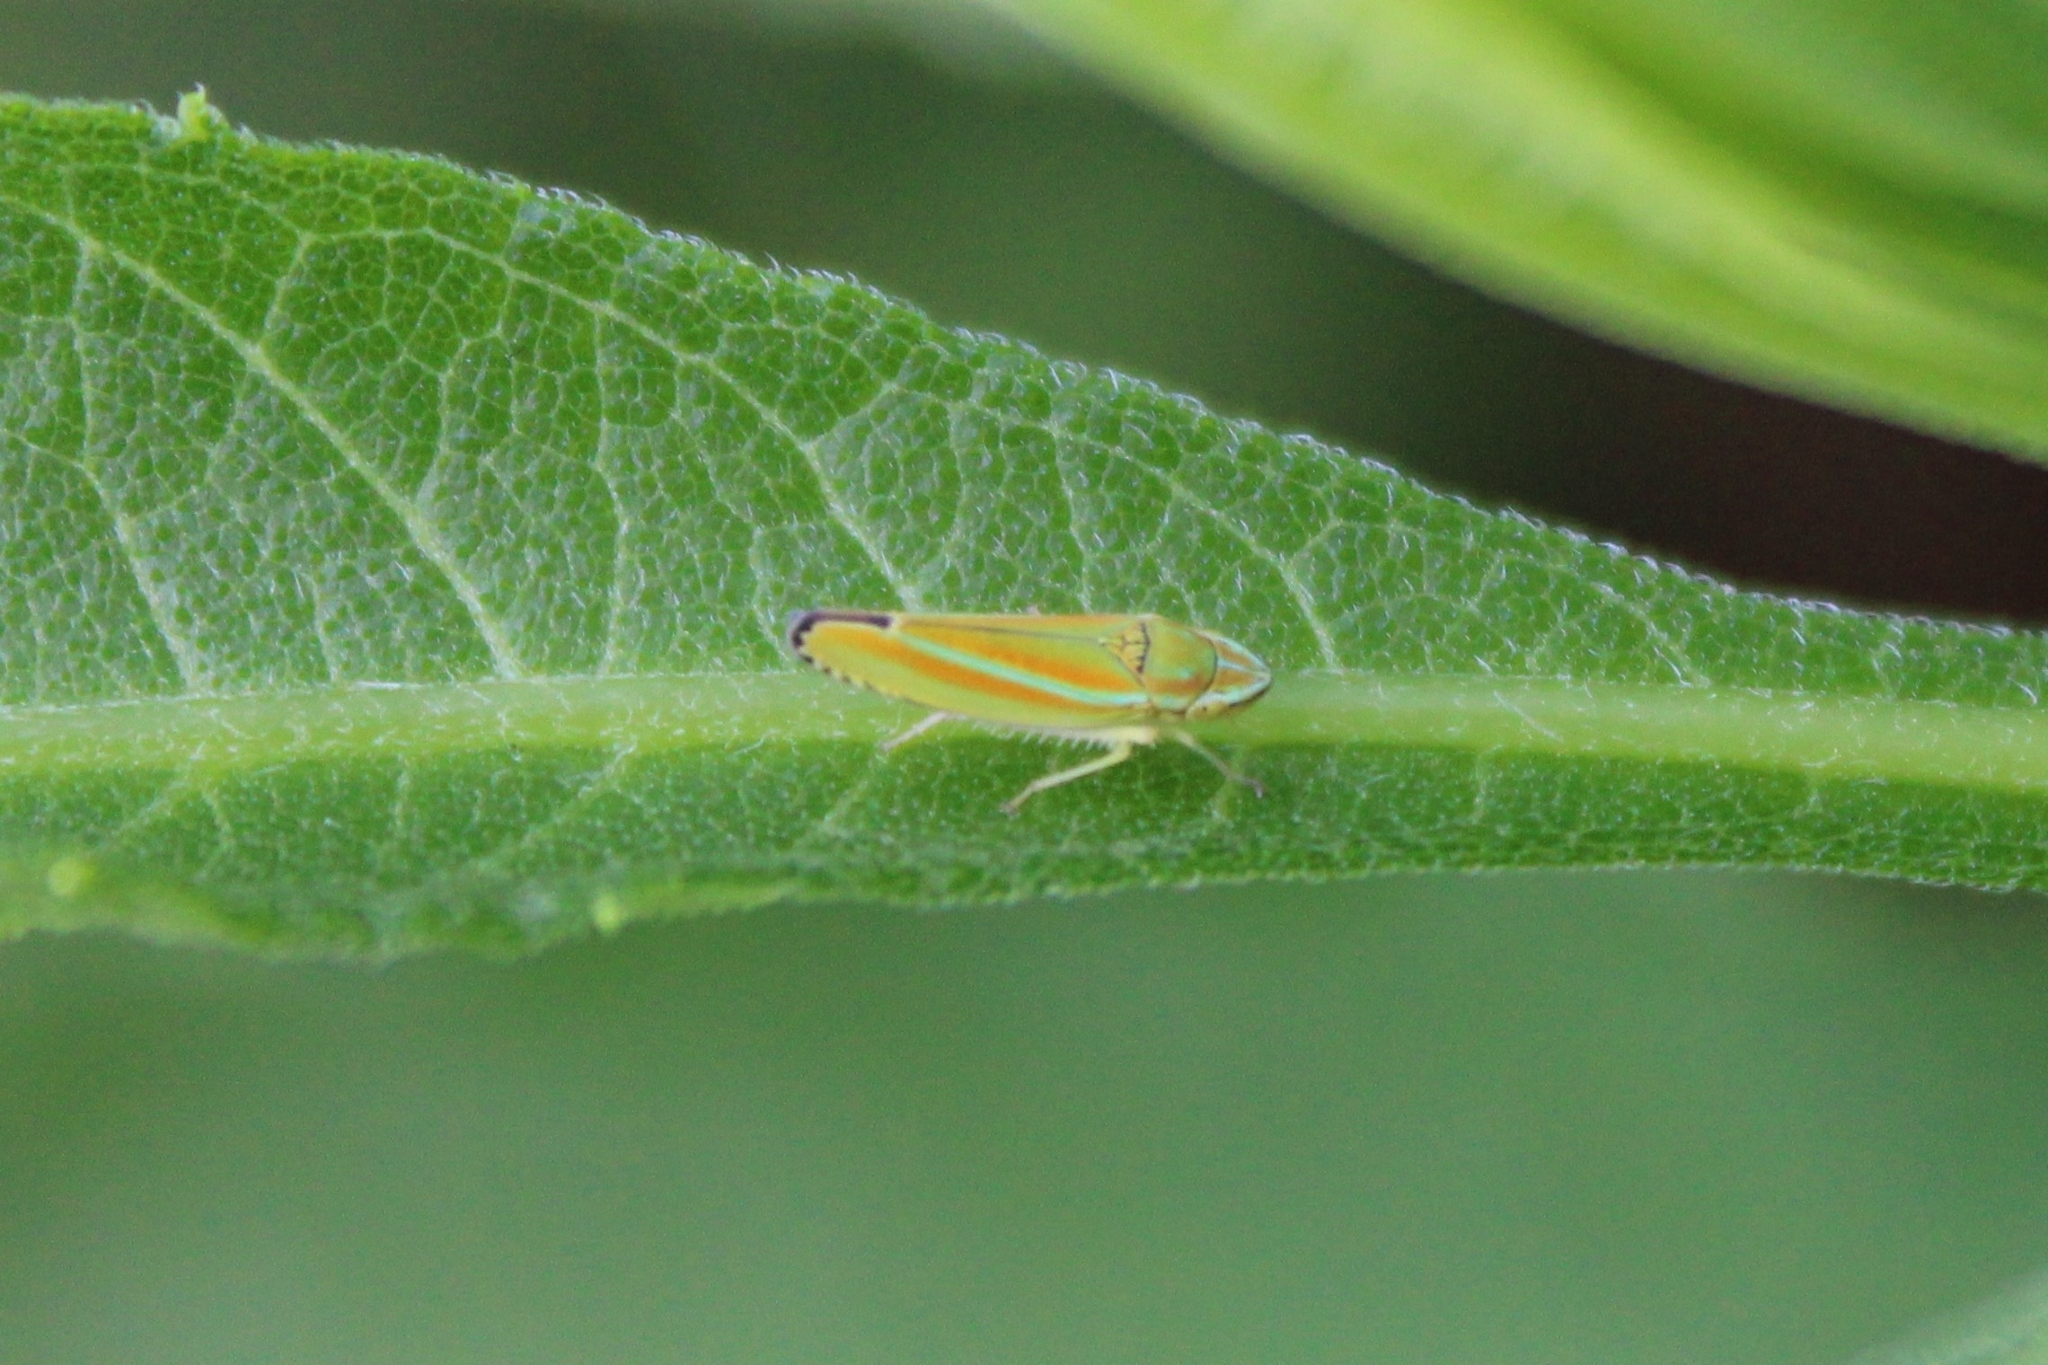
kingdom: Animalia
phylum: Arthropoda
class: Insecta
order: Hemiptera
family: Cicadellidae
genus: Graphocephala
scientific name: Graphocephala versuta
